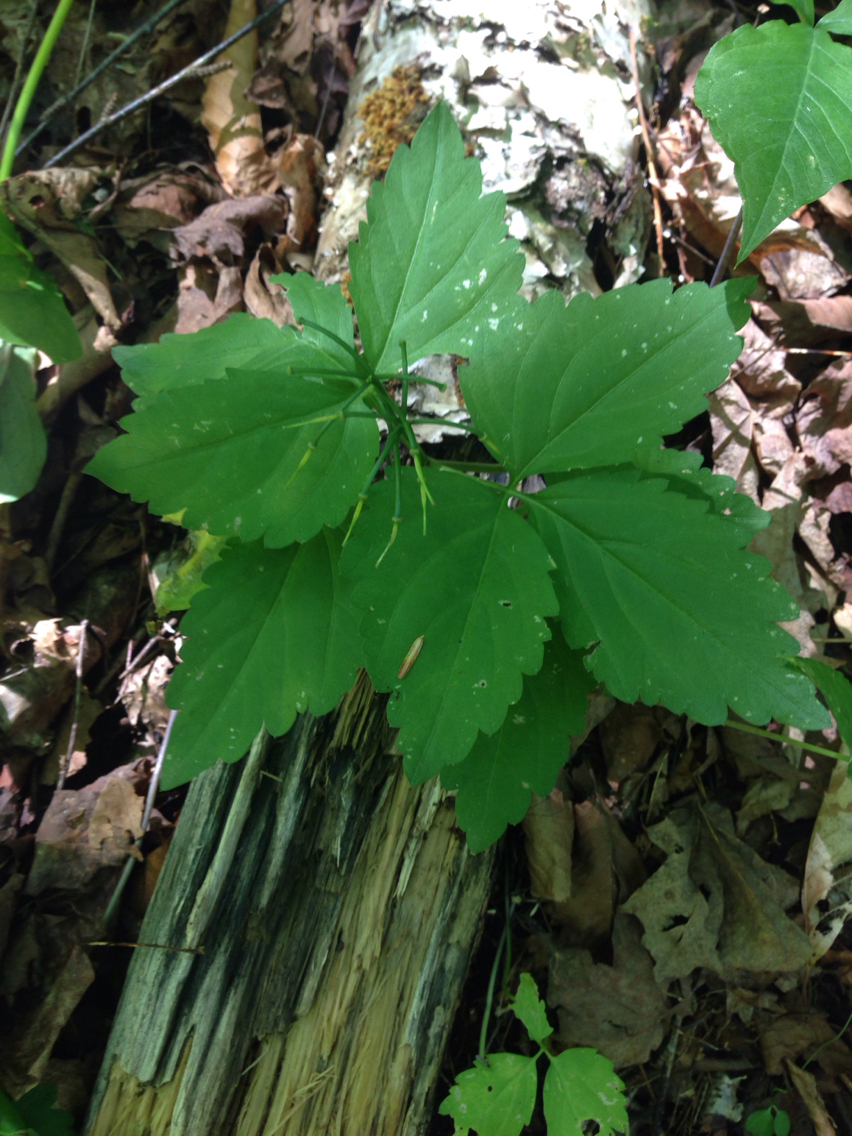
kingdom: Plantae
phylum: Tracheophyta
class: Magnoliopsida
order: Brassicales
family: Brassicaceae
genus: Cardamine
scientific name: Cardamine diphylla
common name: Broad-leaved toothwort
